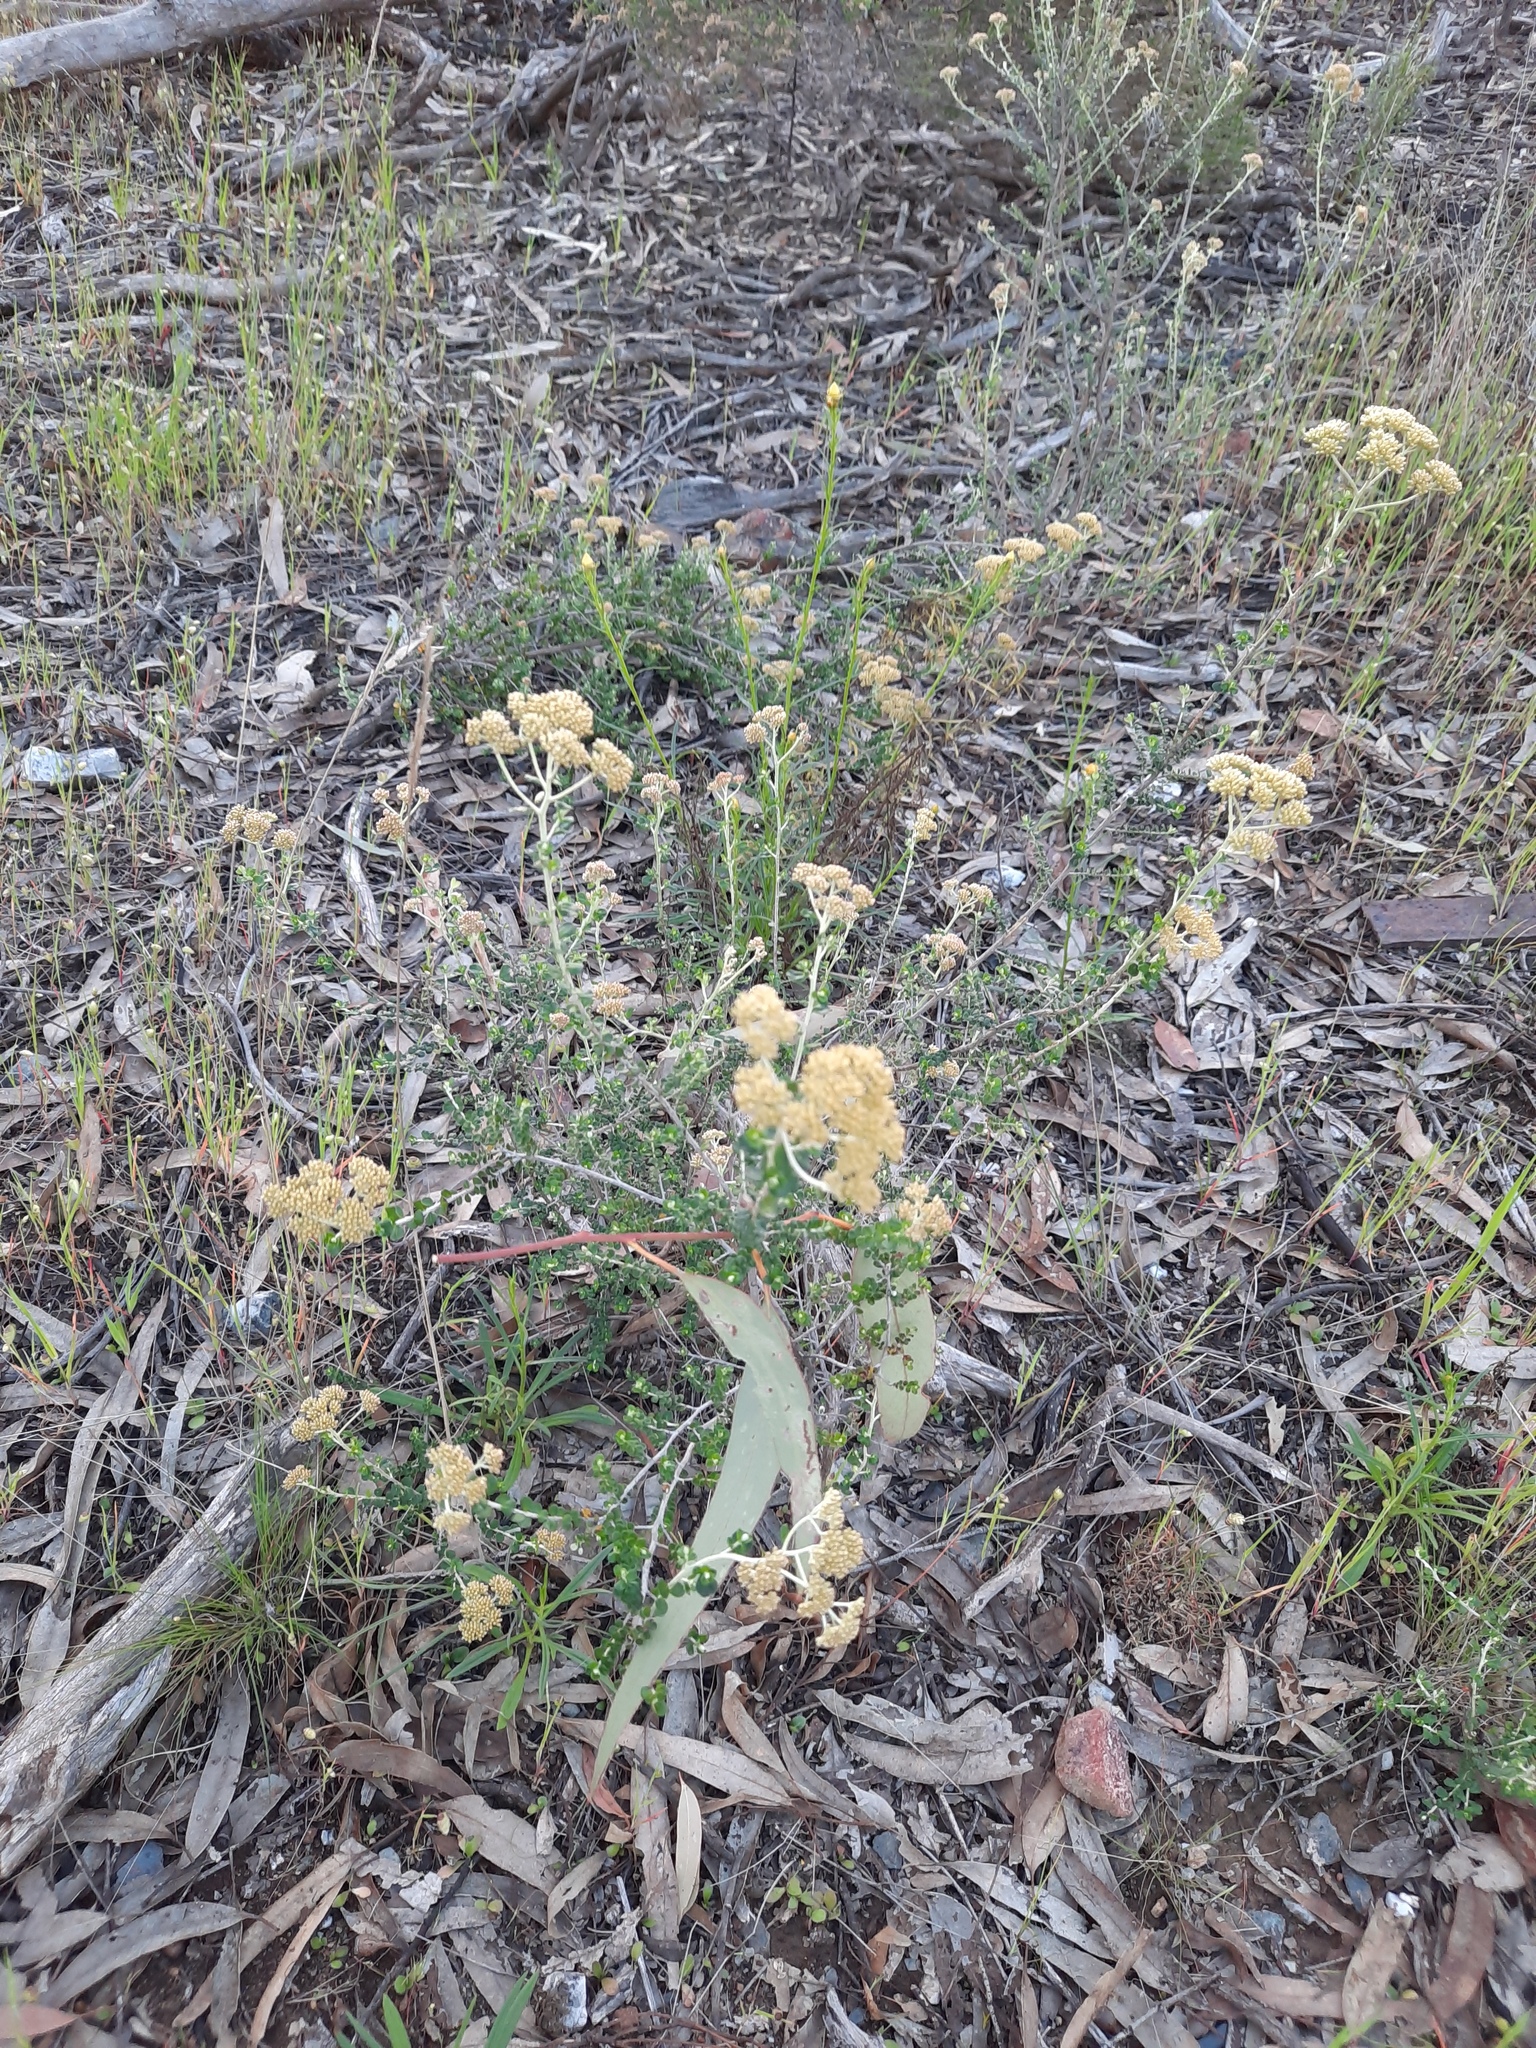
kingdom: Plantae
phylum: Tracheophyta
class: Magnoliopsida
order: Asterales
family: Asteraceae
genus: Ozothamnus
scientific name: Ozothamnus obcordatus
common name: Grey everlasting
